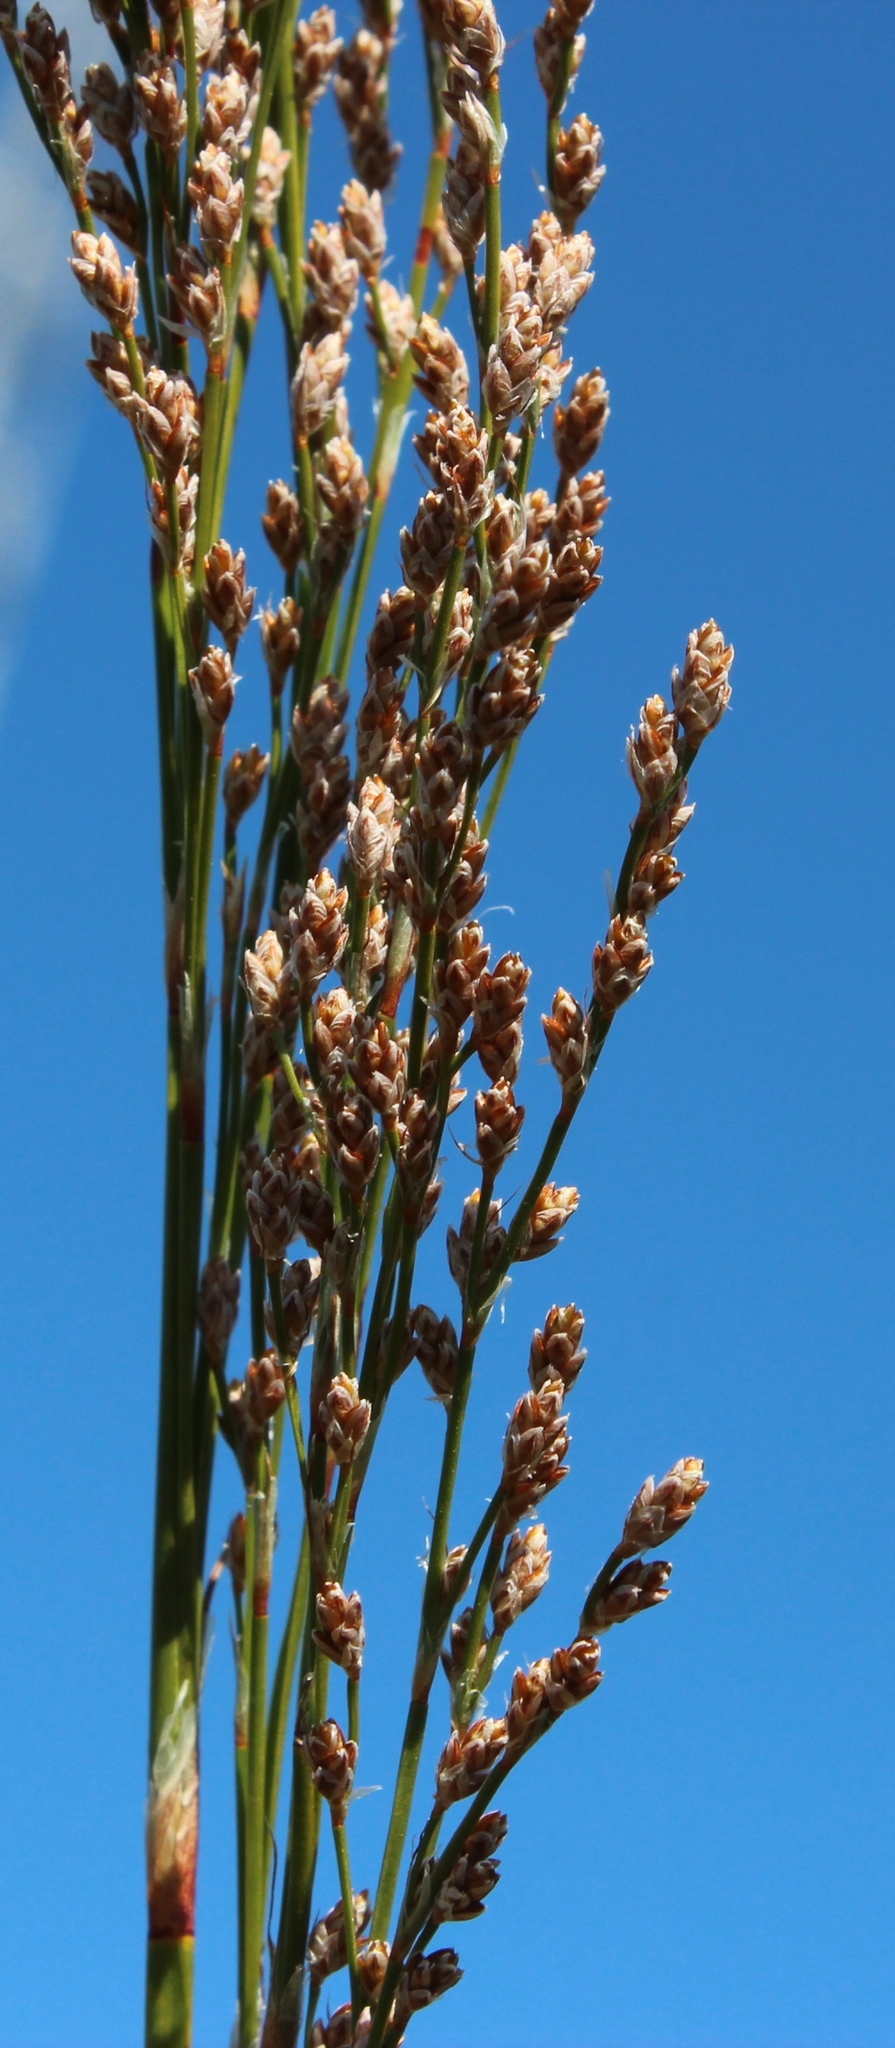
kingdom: Plantae
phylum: Tracheophyta
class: Liliopsida
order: Poales
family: Restionaceae
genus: Restio
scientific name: Restio paniculatus
